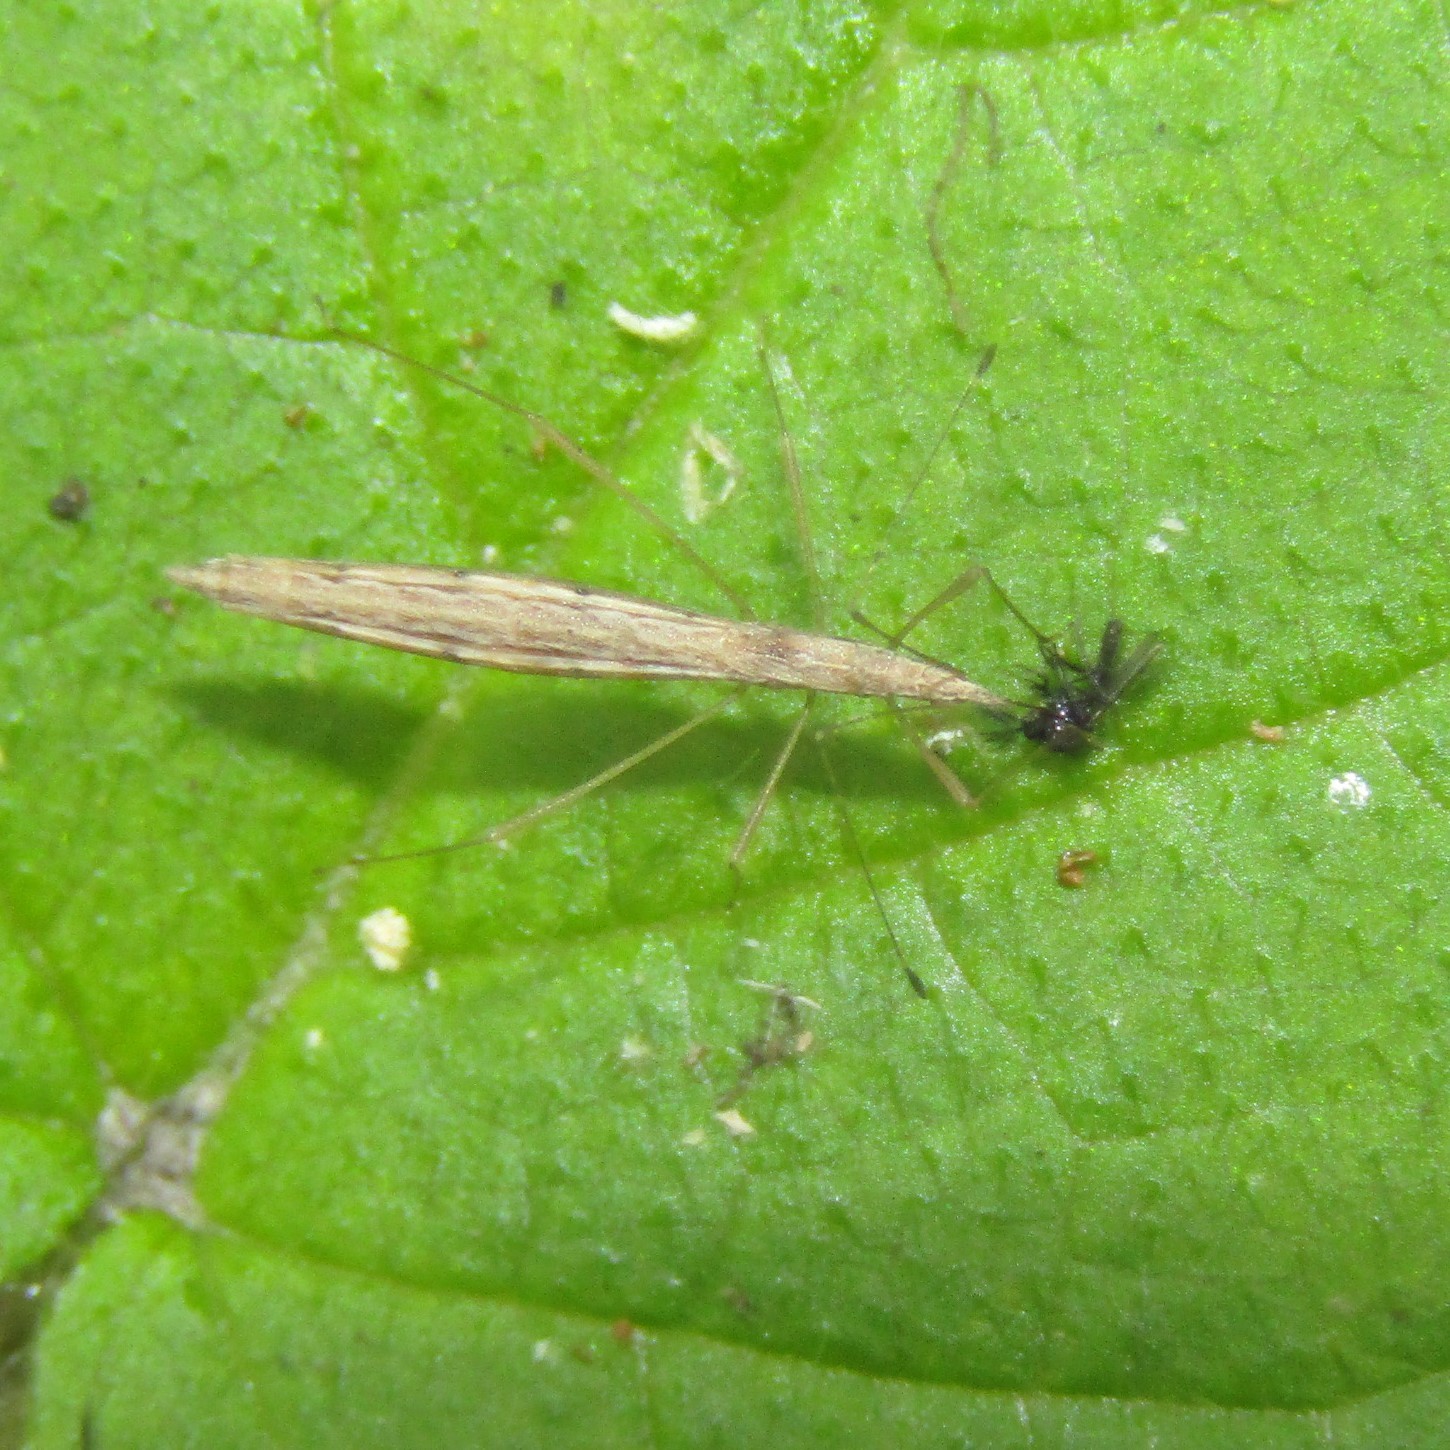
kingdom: Animalia
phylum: Arthropoda
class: Insecta
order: Hemiptera
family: Berytidae
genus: Bezu
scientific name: Bezu wakefieldi
